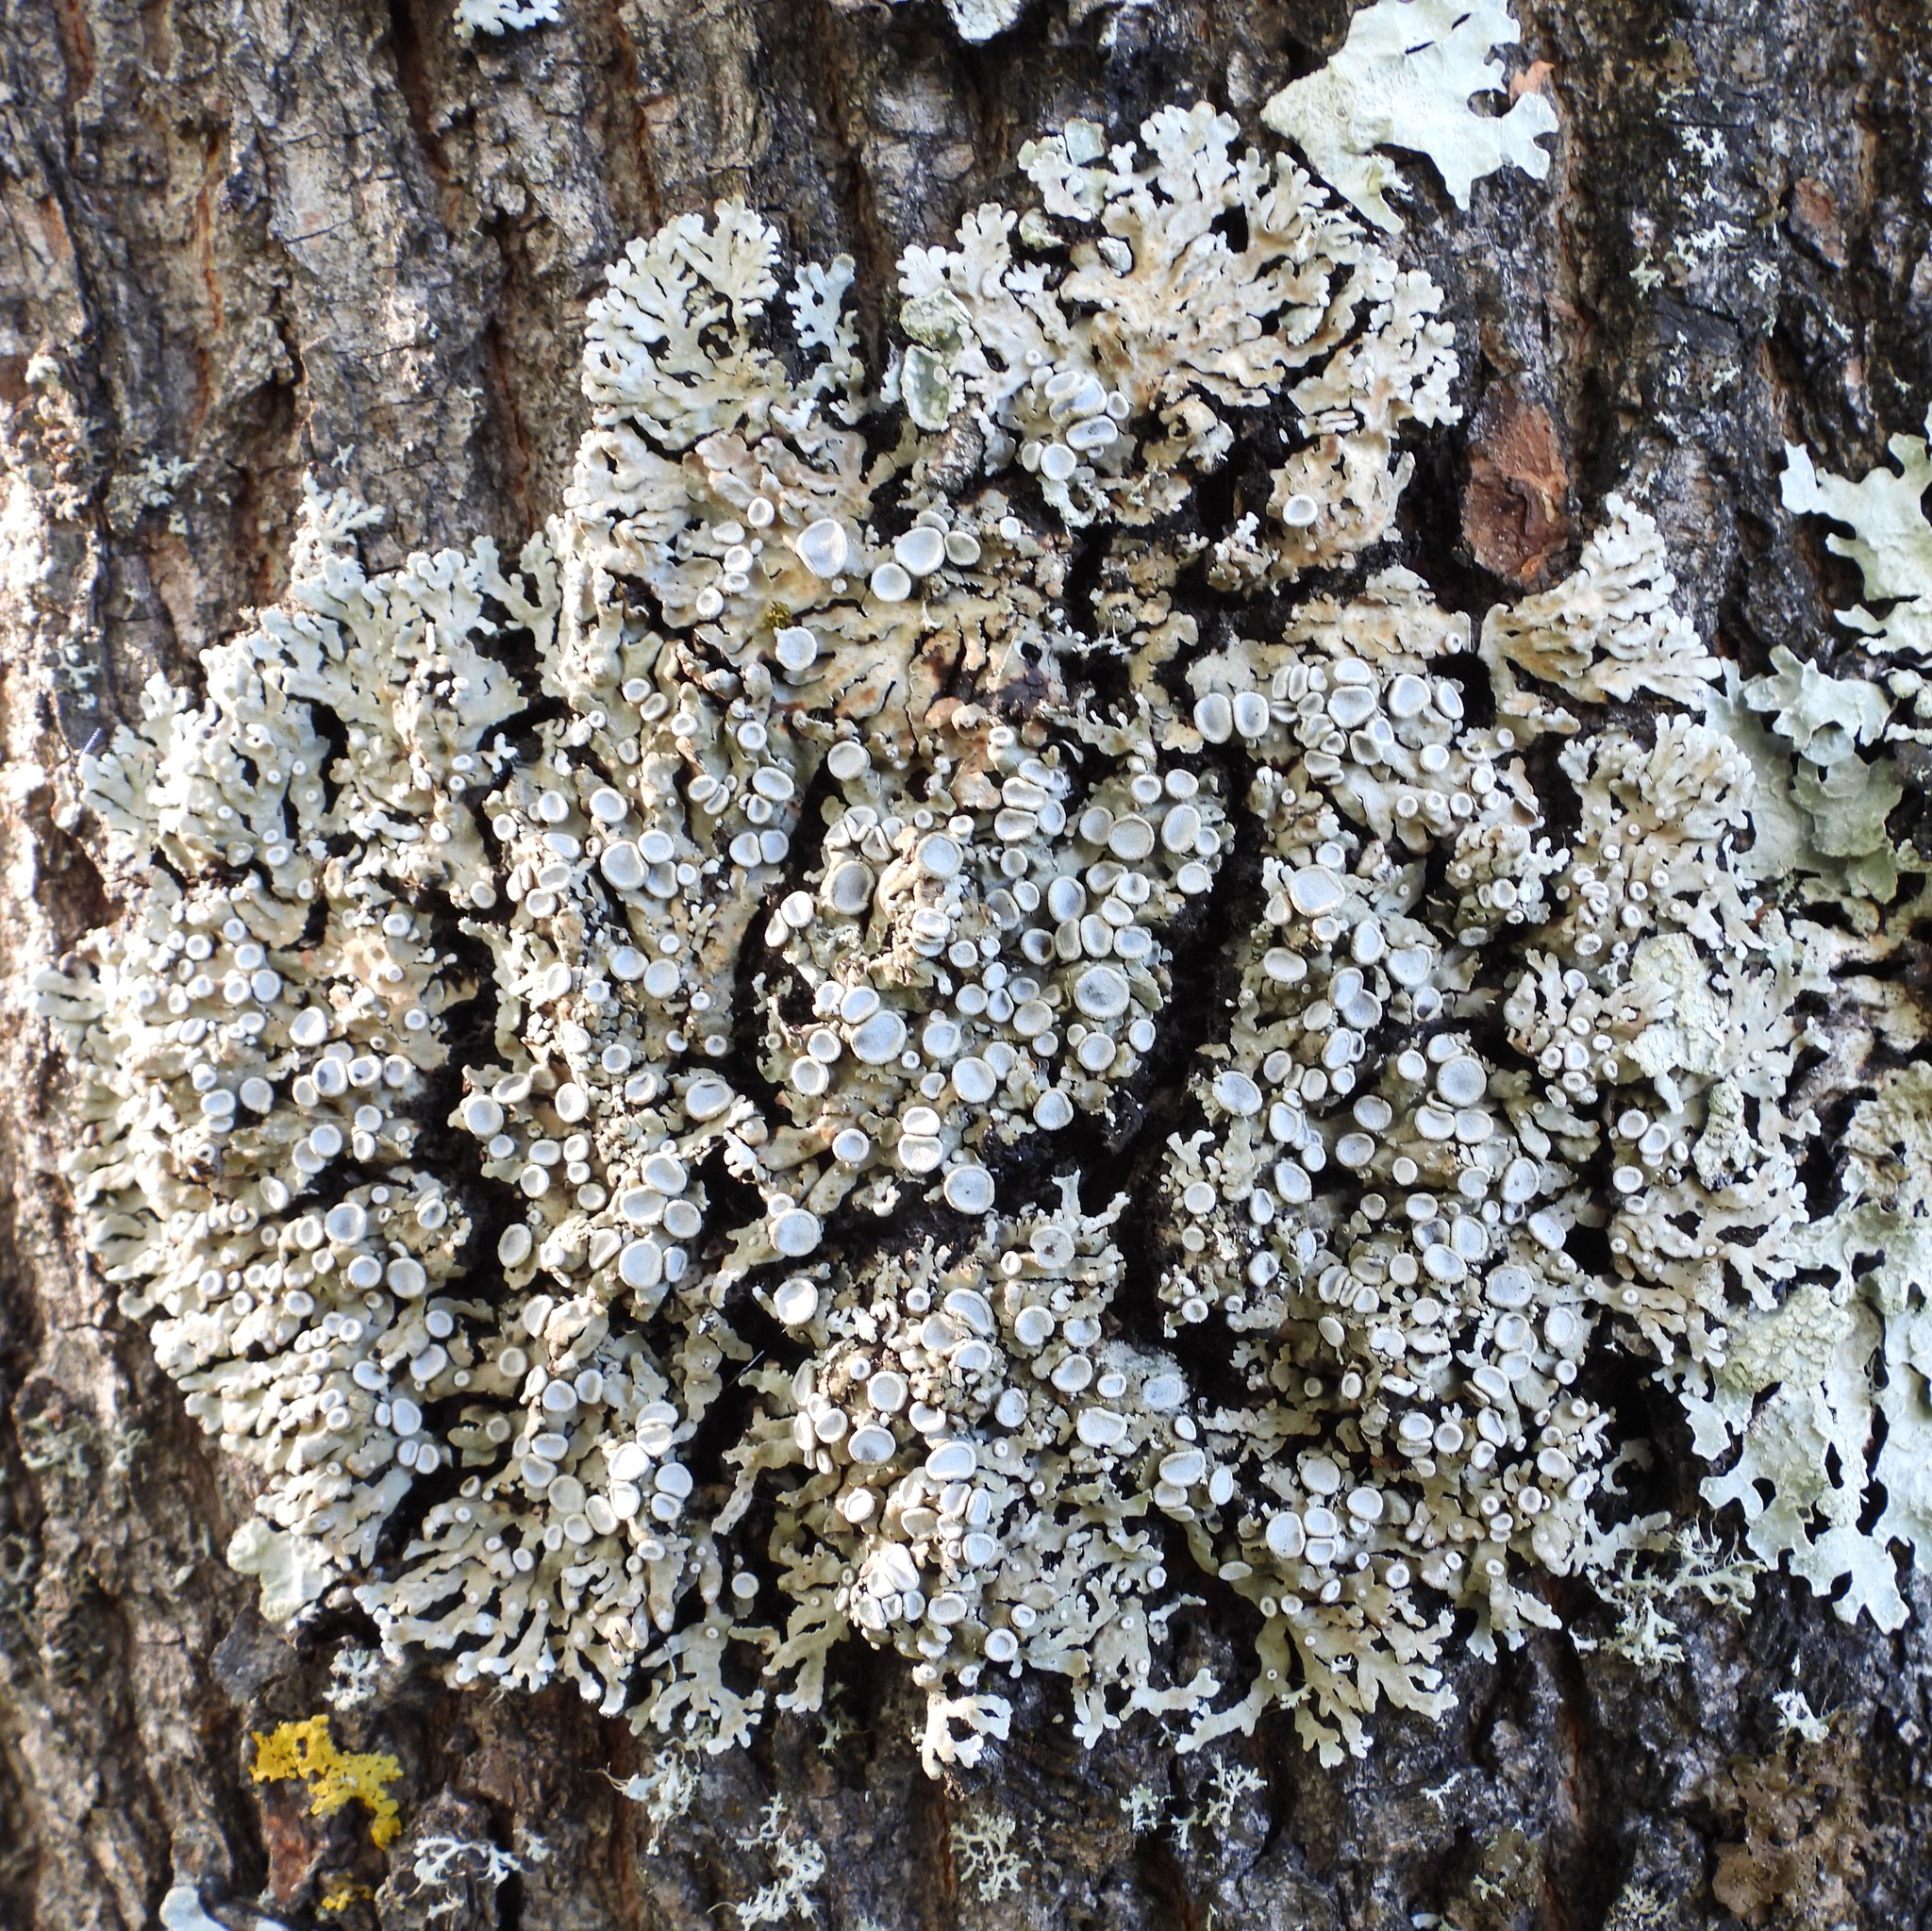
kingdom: Fungi
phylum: Ascomycota
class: Lecanoromycetes
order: Caliciales
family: Physciaceae
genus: Physconia
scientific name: Physconia distorta
